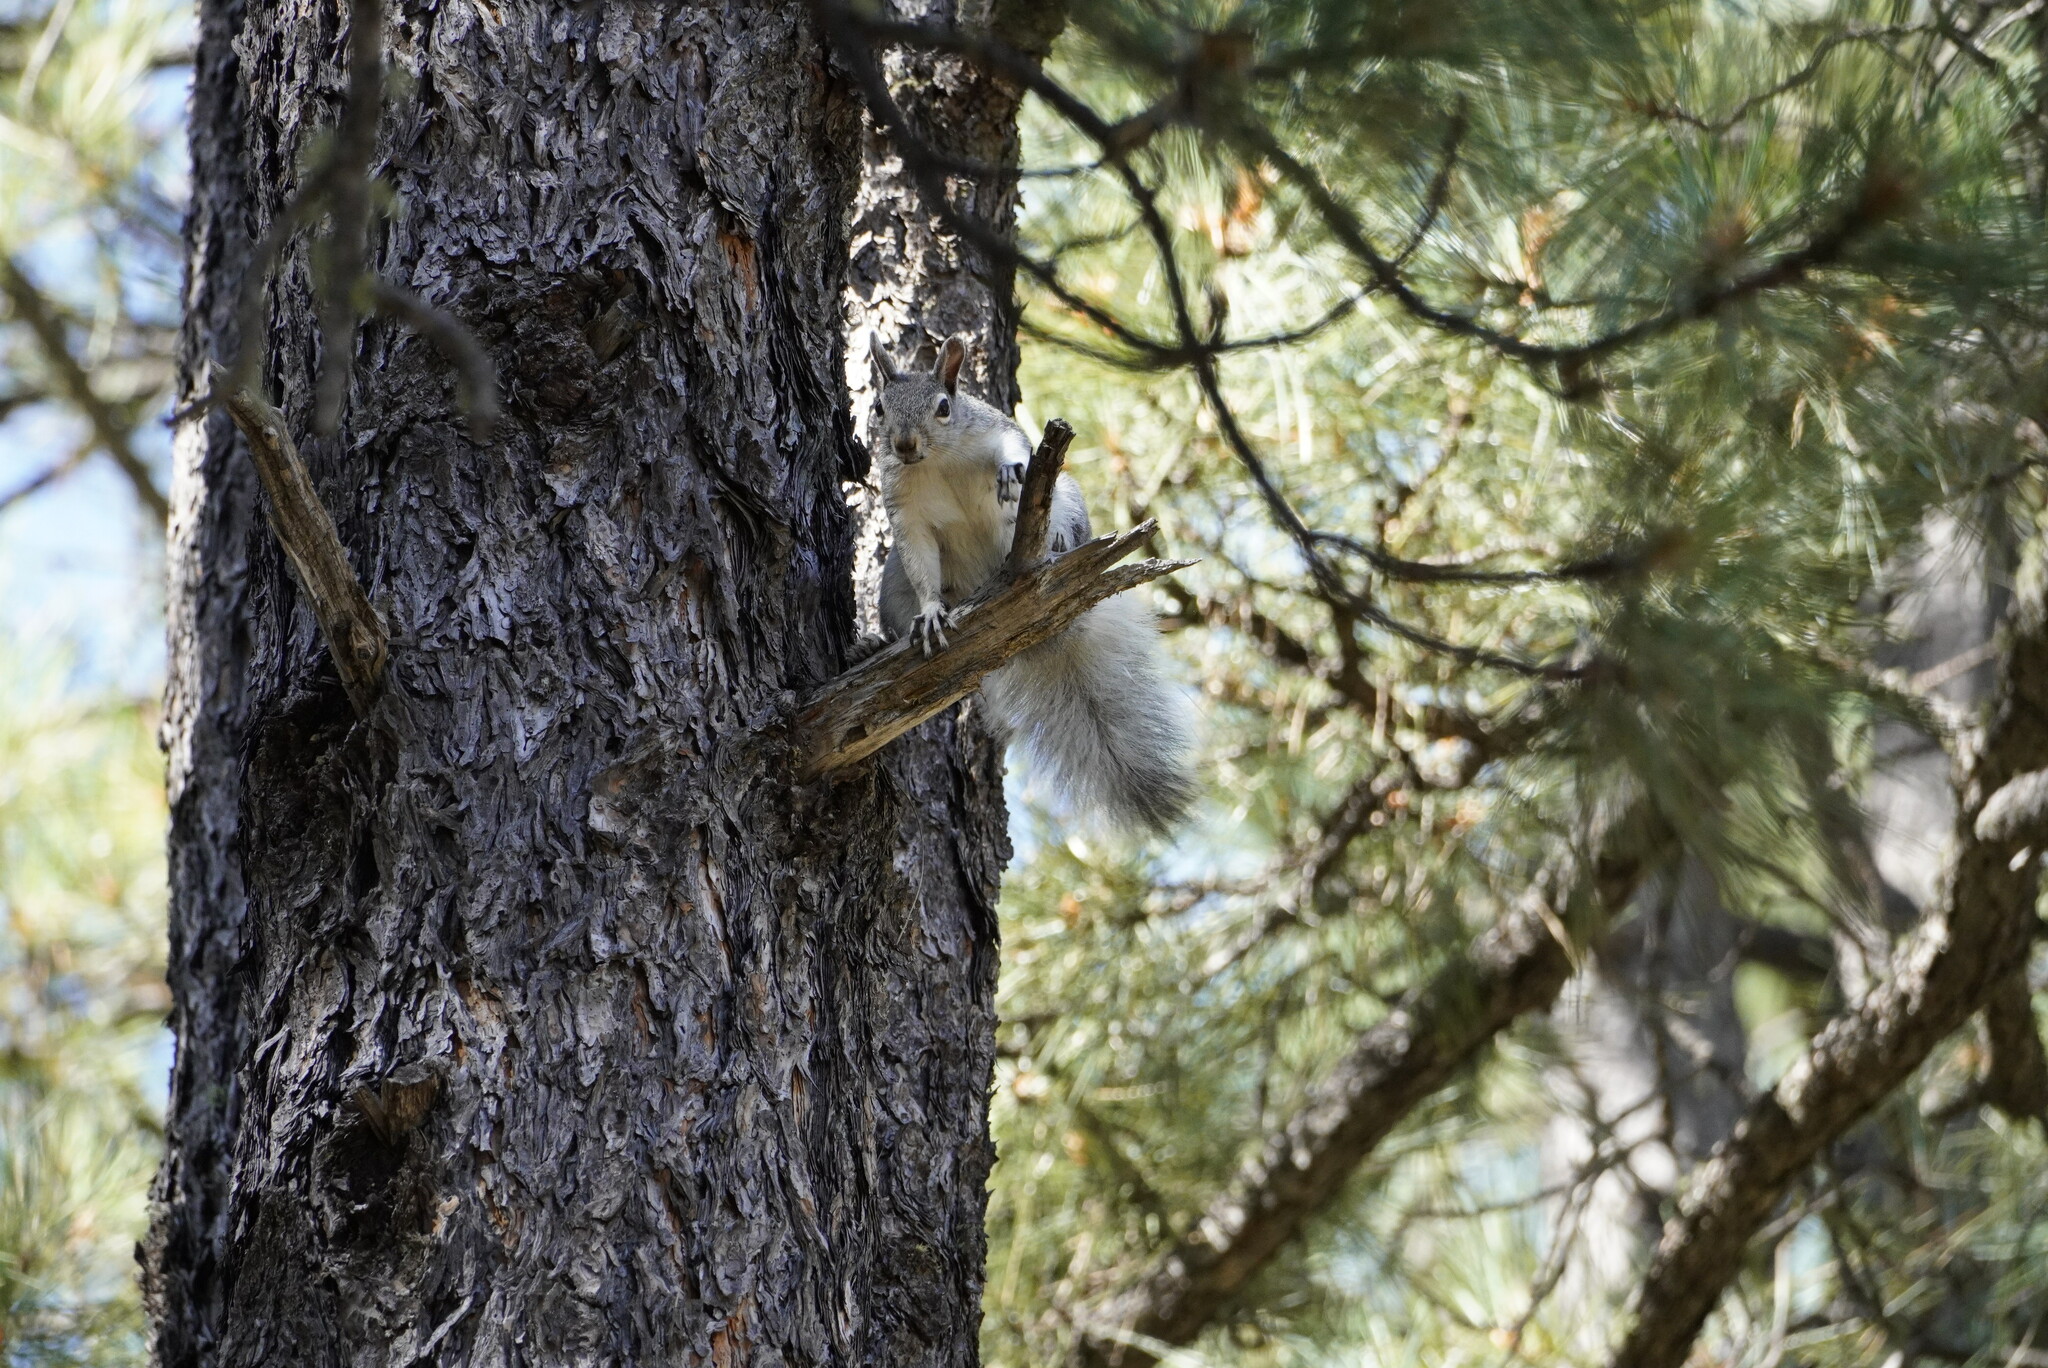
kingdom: Animalia
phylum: Chordata
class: Mammalia
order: Rodentia
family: Sciuridae
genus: Sciurus
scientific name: Sciurus aberti
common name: Abert's squirrel
